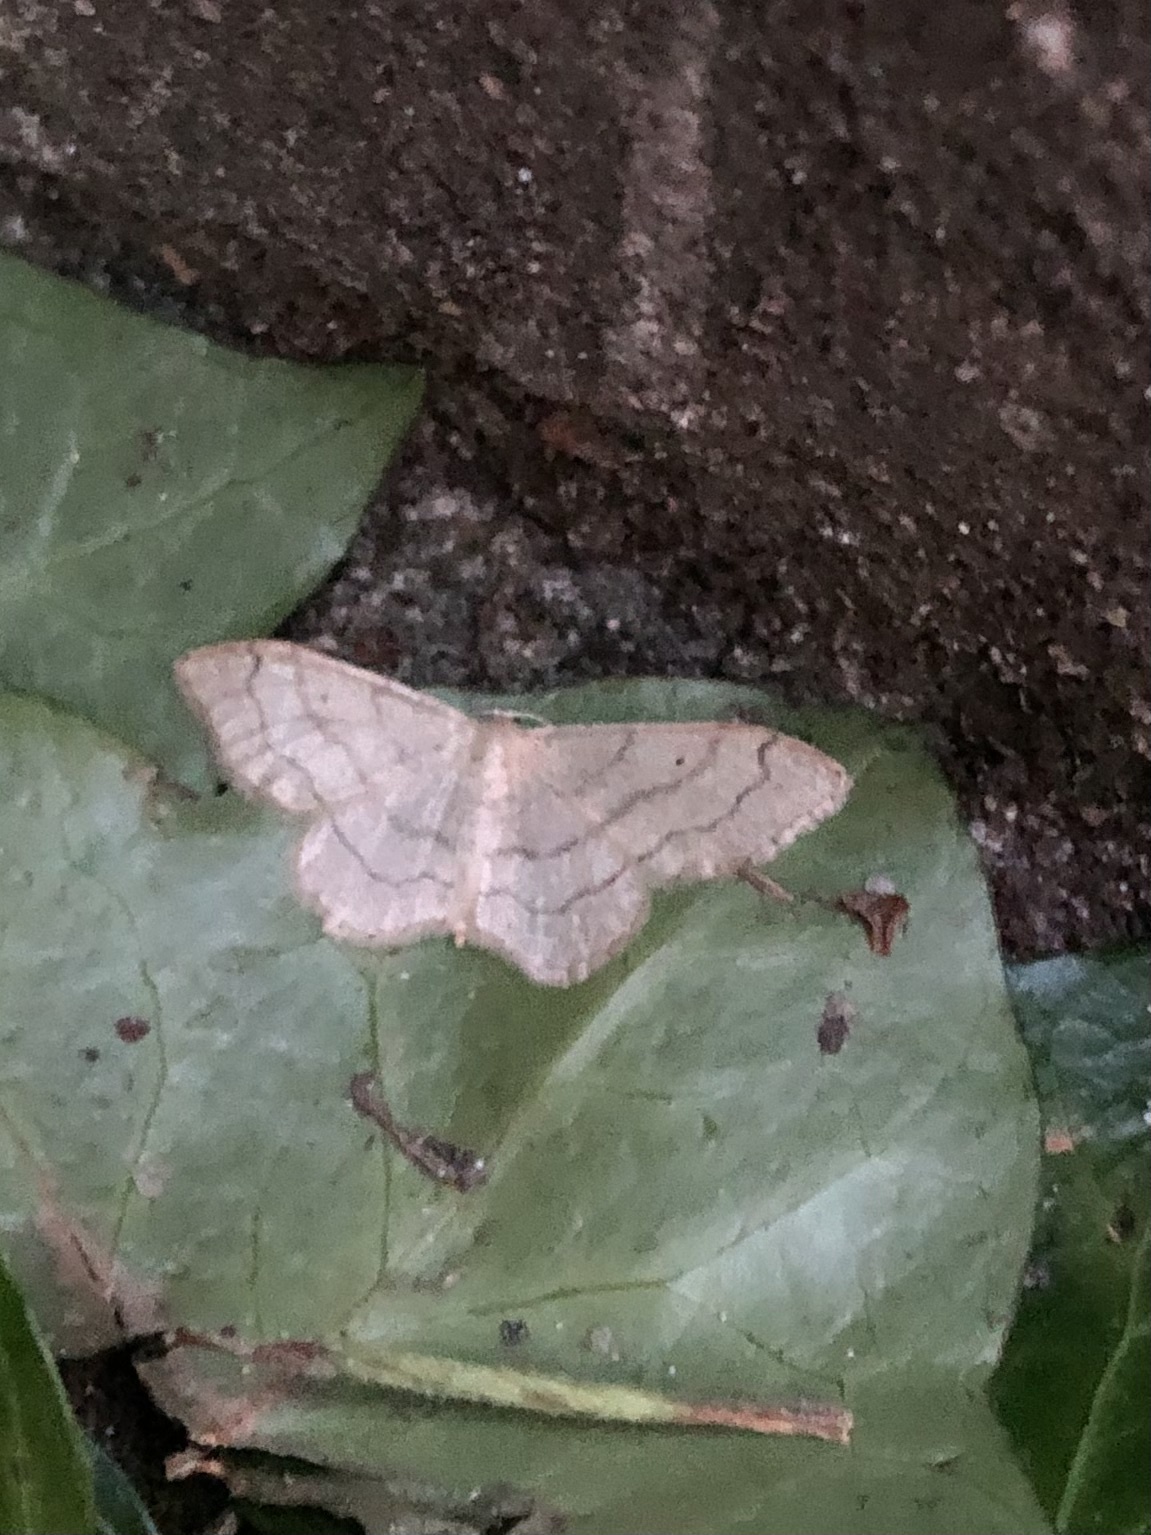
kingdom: Animalia
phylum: Arthropoda
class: Insecta
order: Lepidoptera
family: Geometridae
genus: Idaea
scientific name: Idaea aversata
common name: Riband wave
